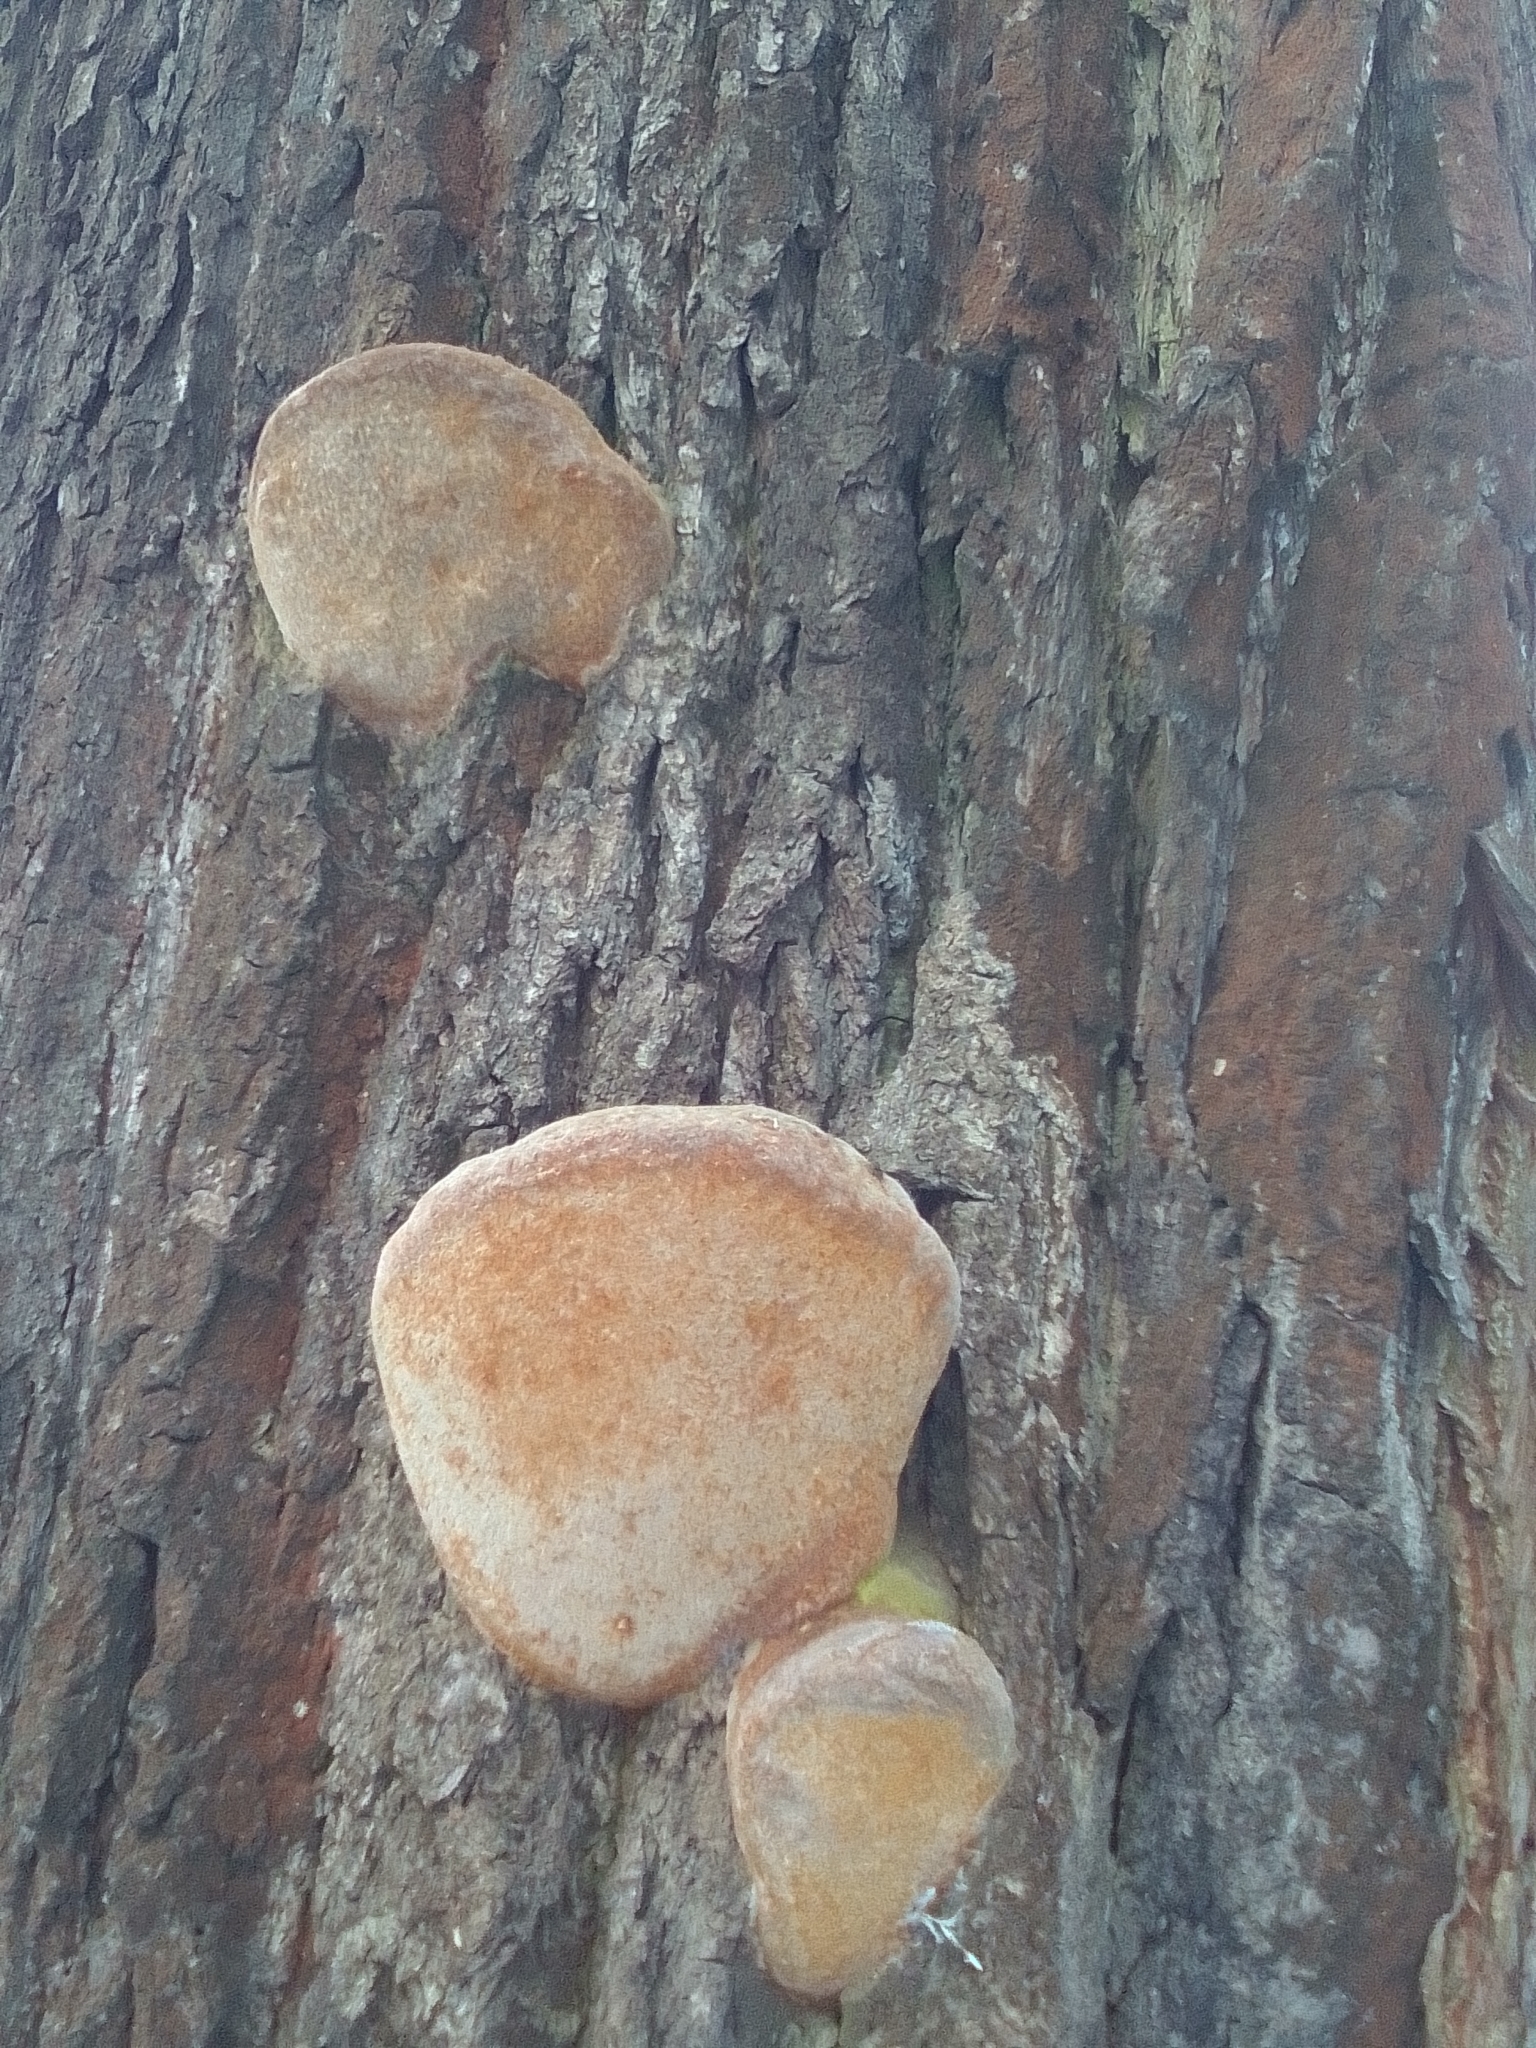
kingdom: Fungi
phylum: Basidiomycota
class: Agaricomycetes
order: Hymenochaetales
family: Hymenochaetaceae
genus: Fomitiporia
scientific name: Fomitiporia robusta
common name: Robust bracket
